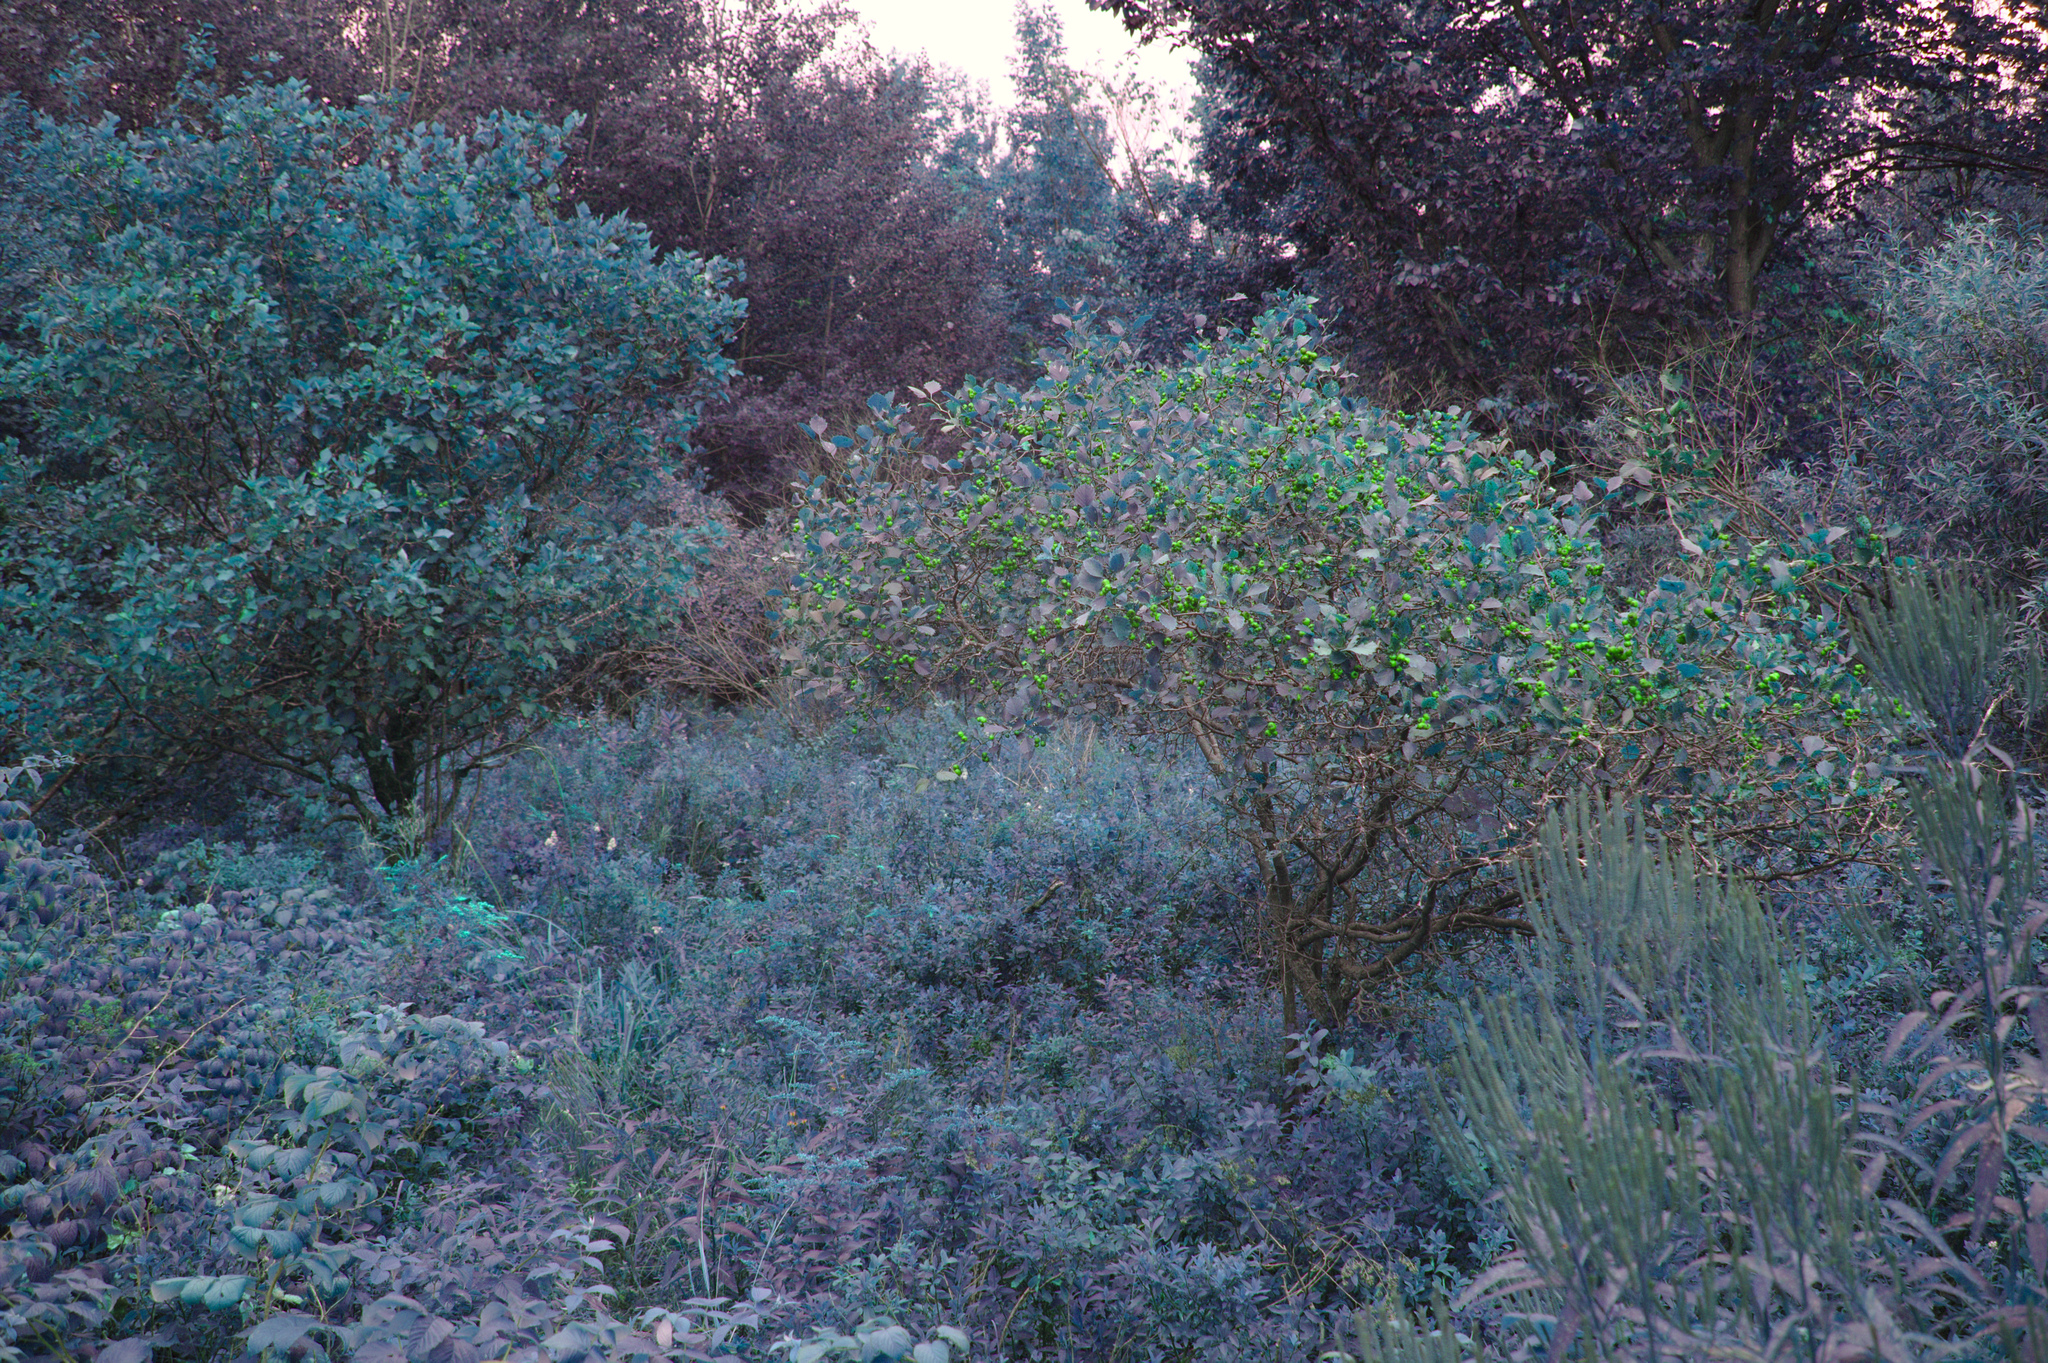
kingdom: Plantae
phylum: Tracheophyta
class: Magnoliopsida
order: Rosales
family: Rosaceae
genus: Crataegus
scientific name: Crataegus chrysocarpa
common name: Fire-berry hawthorn
